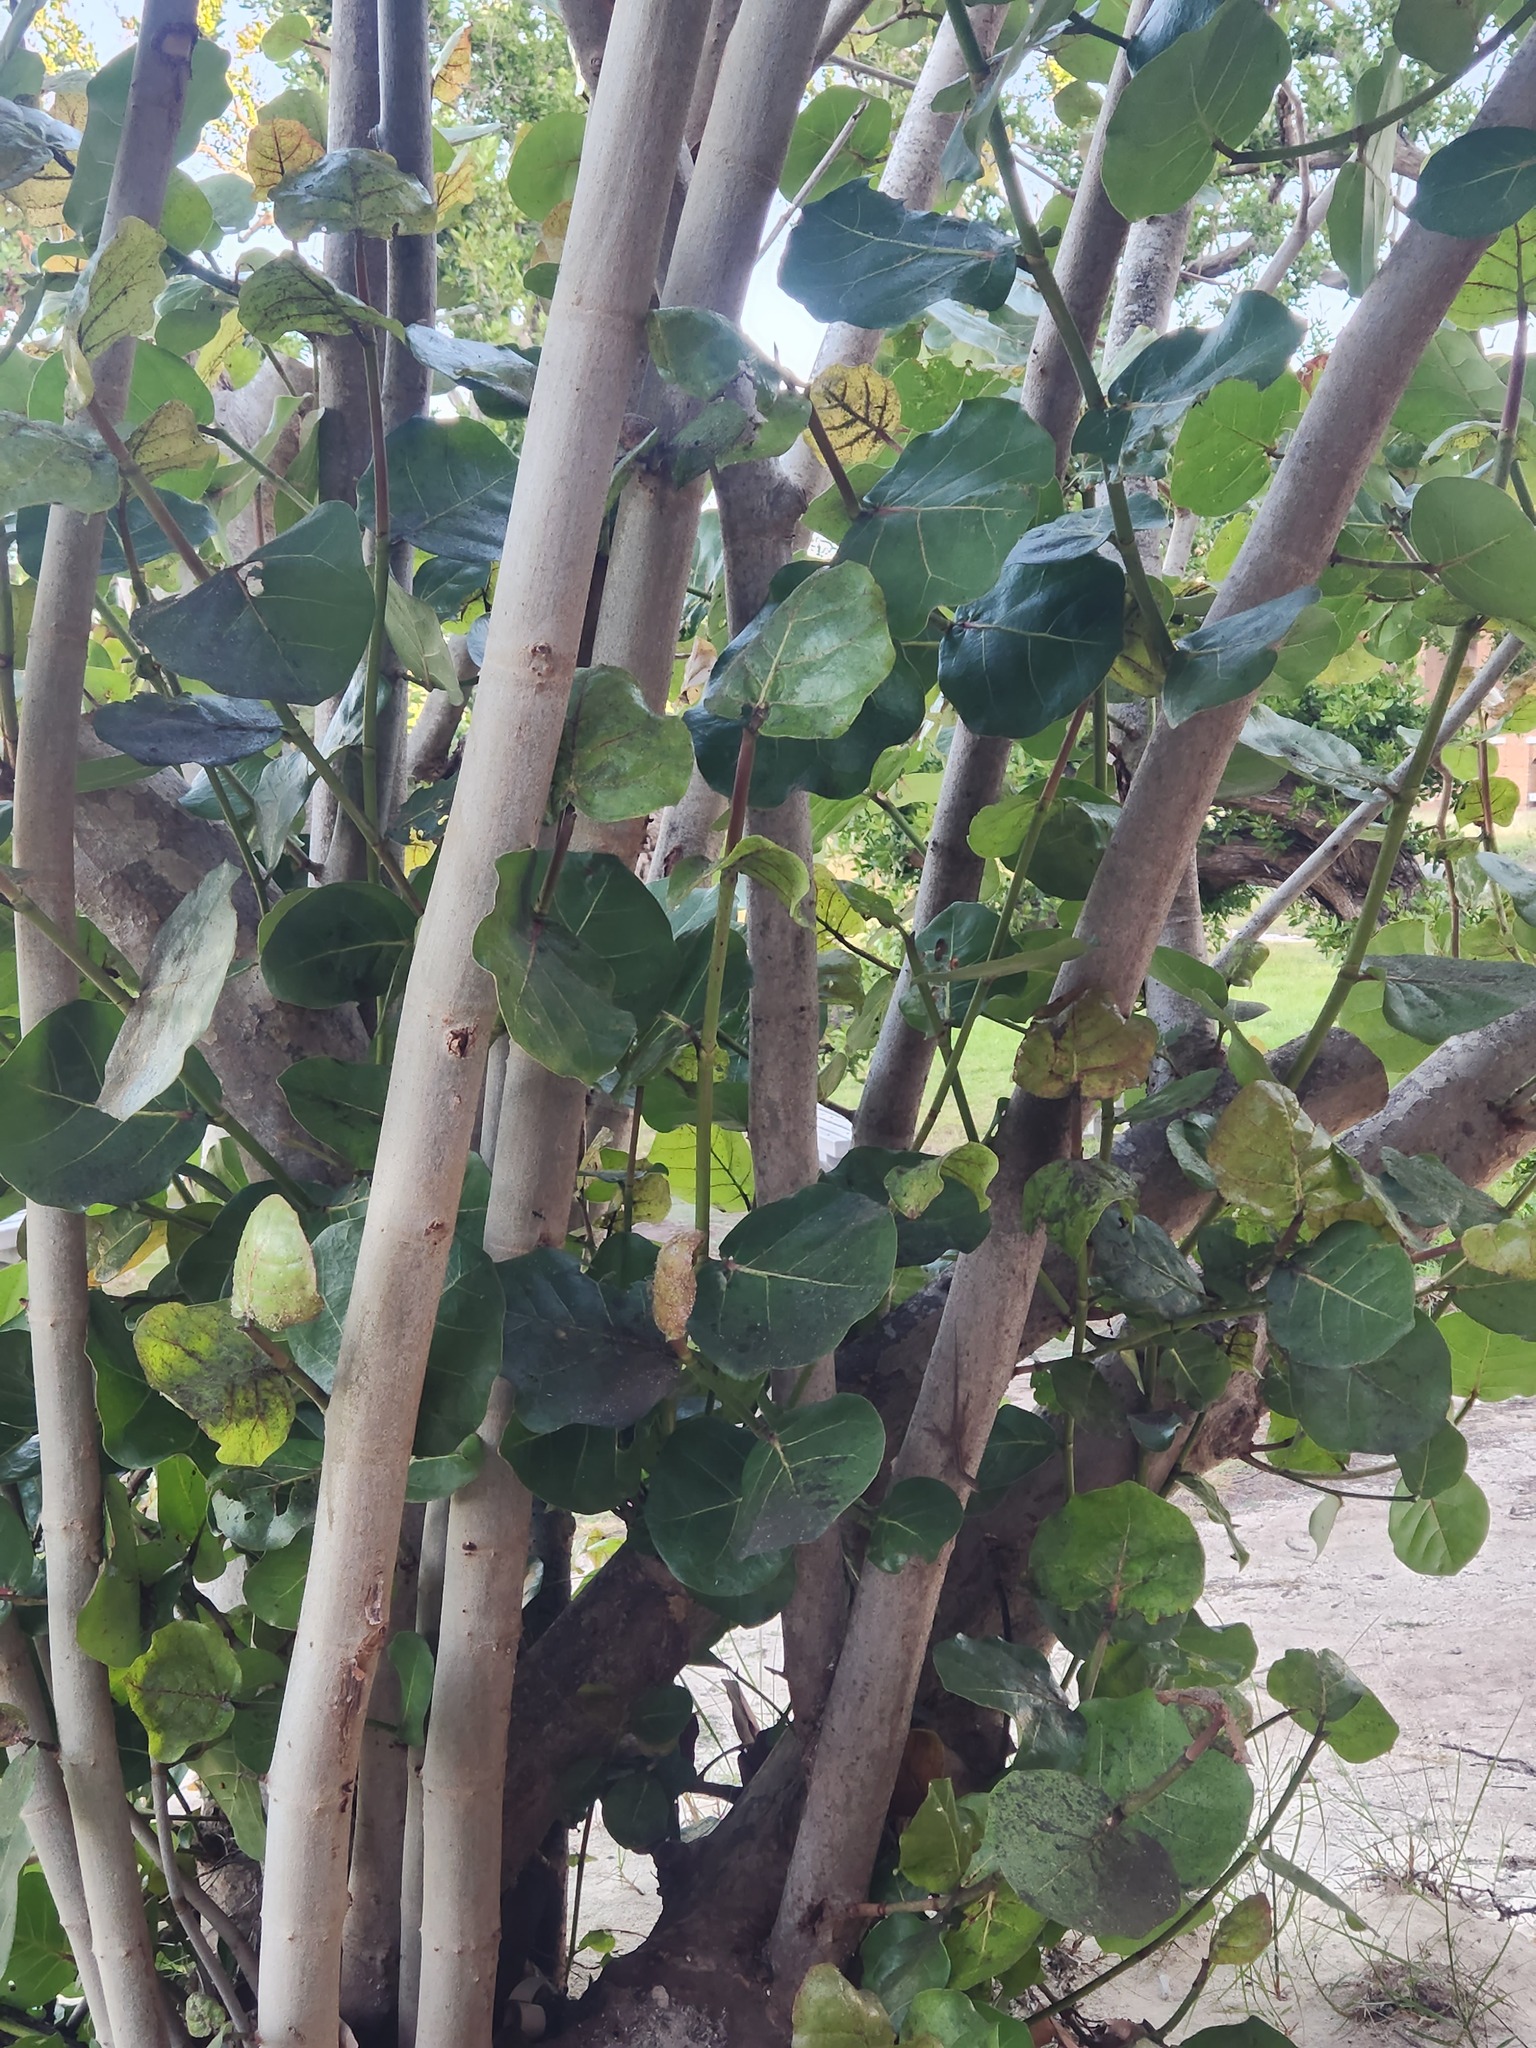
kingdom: Plantae
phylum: Tracheophyta
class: Magnoliopsida
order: Caryophyllales
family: Polygonaceae
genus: Coccoloba
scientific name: Coccoloba uvifera
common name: Seagrape
